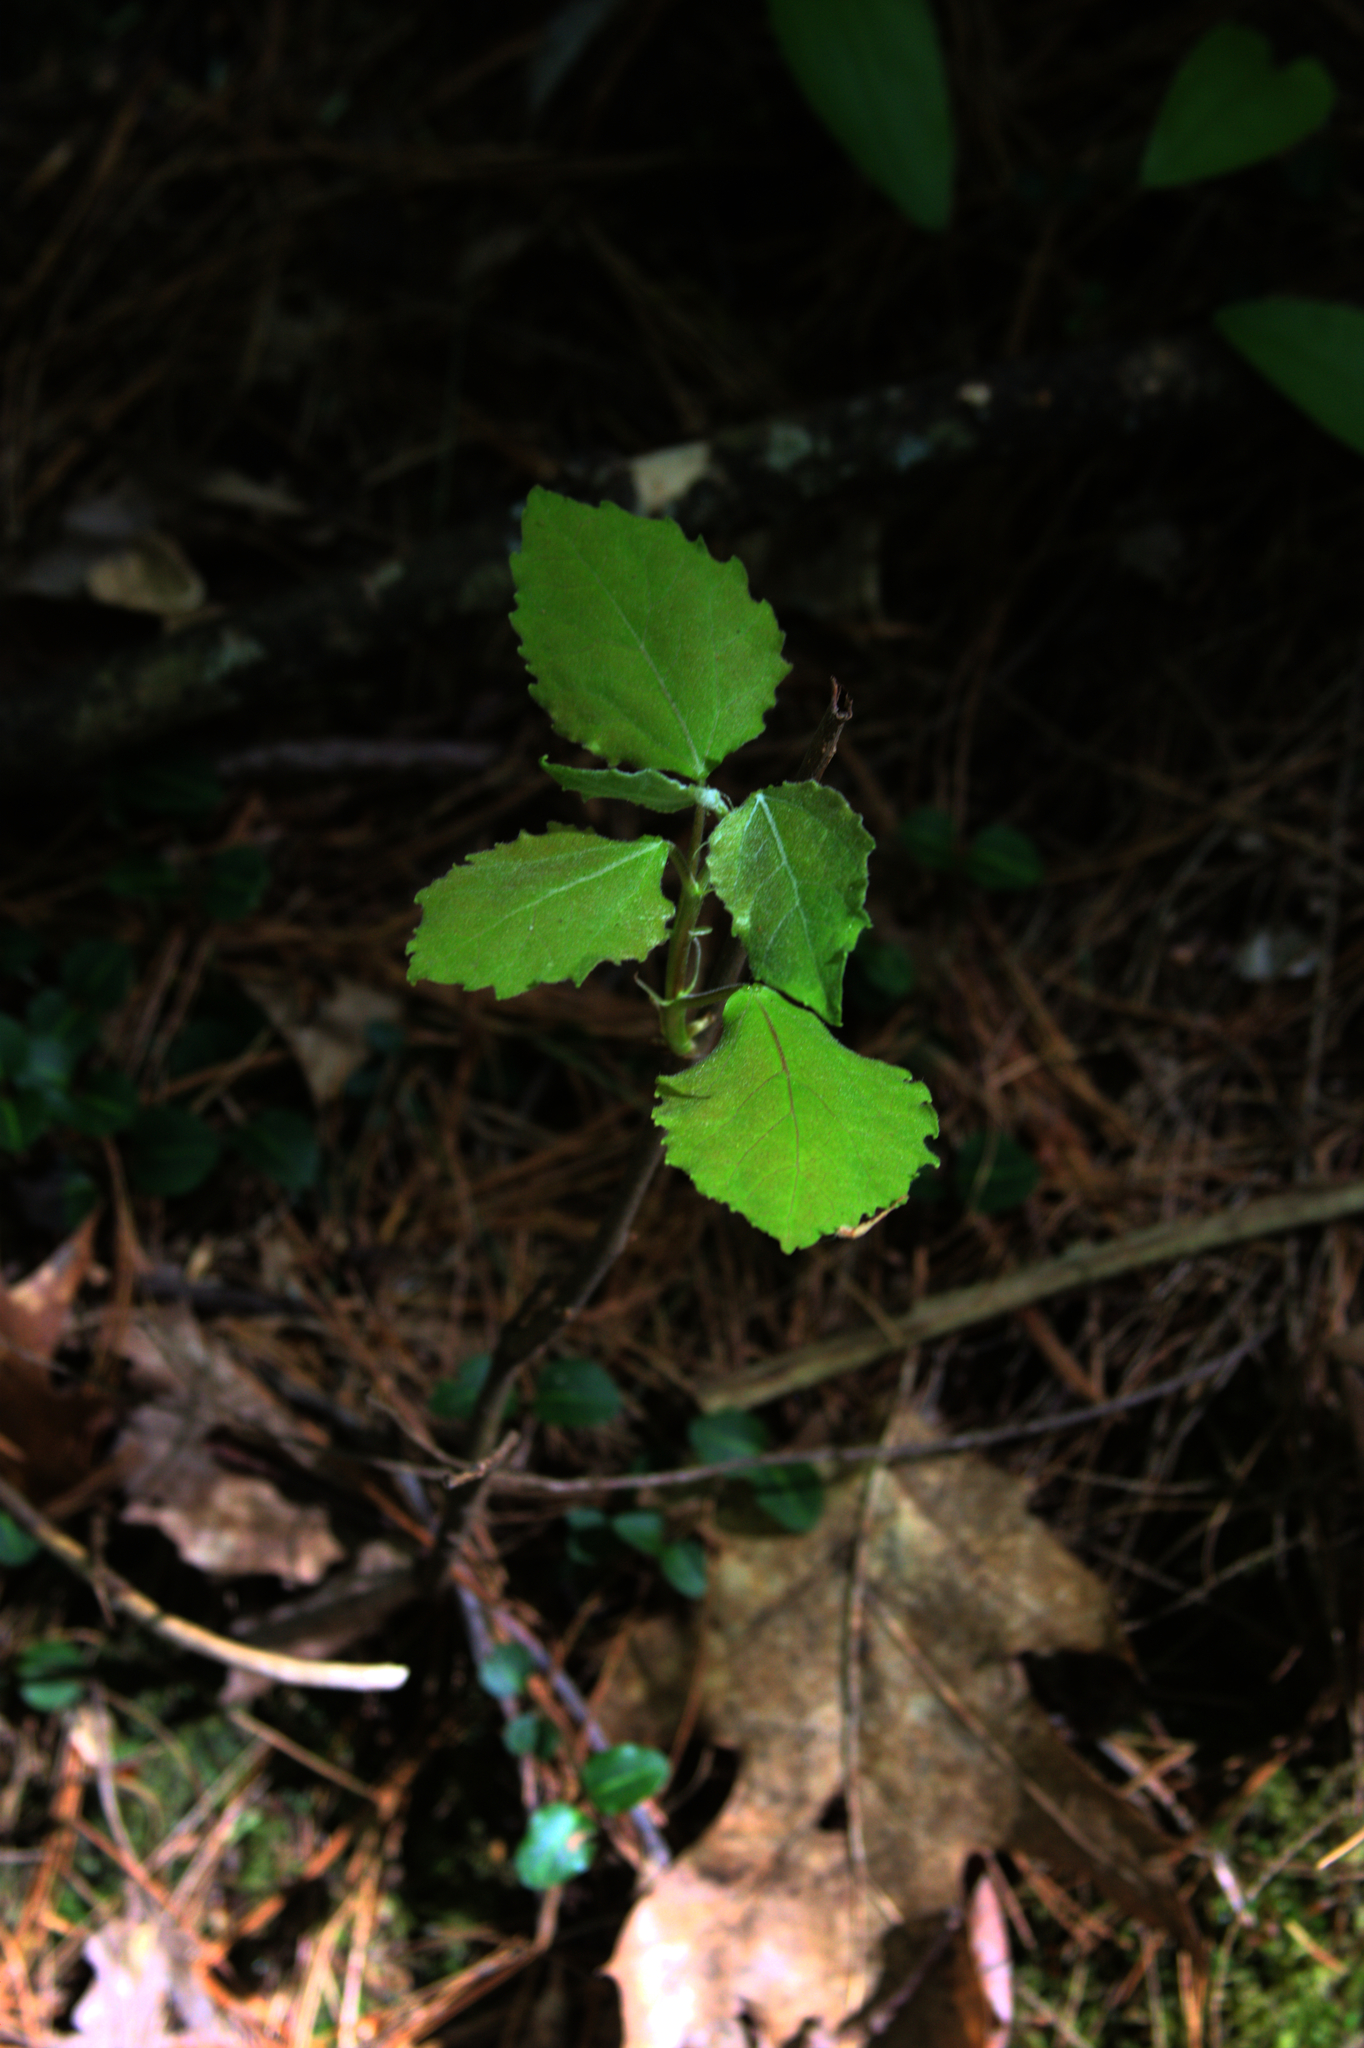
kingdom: Plantae
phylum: Tracheophyta
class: Magnoliopsida
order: Malpighiales
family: Salicaceae
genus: Populus
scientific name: Populus grandidentata
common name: Bigtooth aspen
